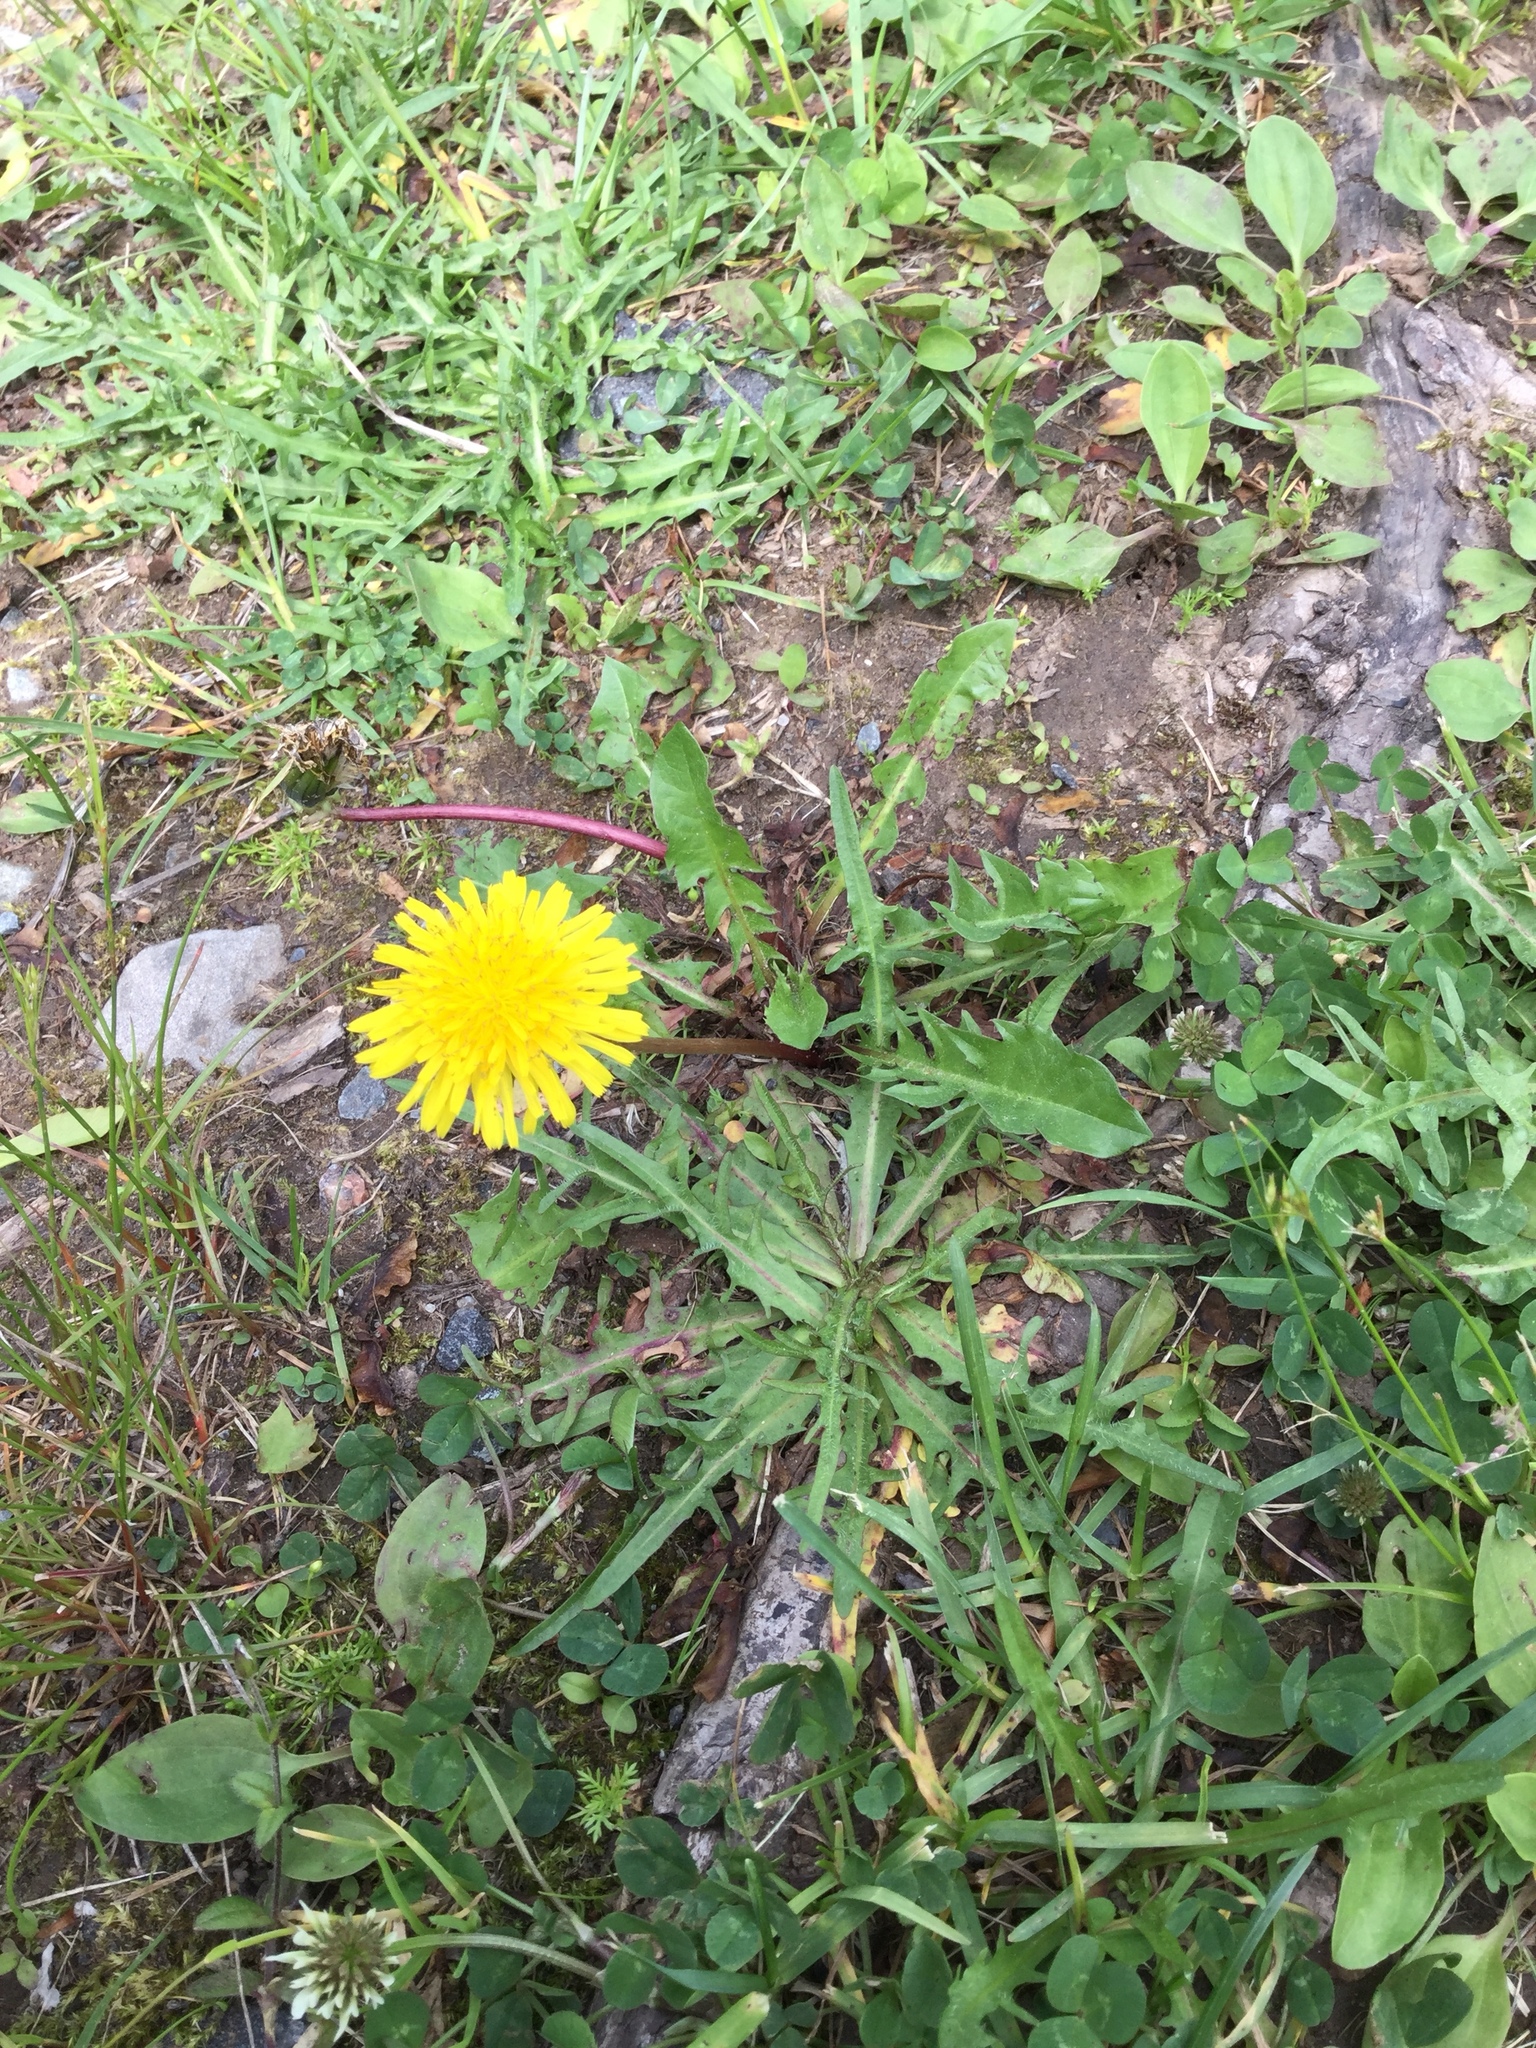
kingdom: Plantae
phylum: Tracheophyta
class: Magnoliopsida
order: Asterales
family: Asteraceae
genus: Taraxacum
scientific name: Taraxacum officinale
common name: Common dandelion
